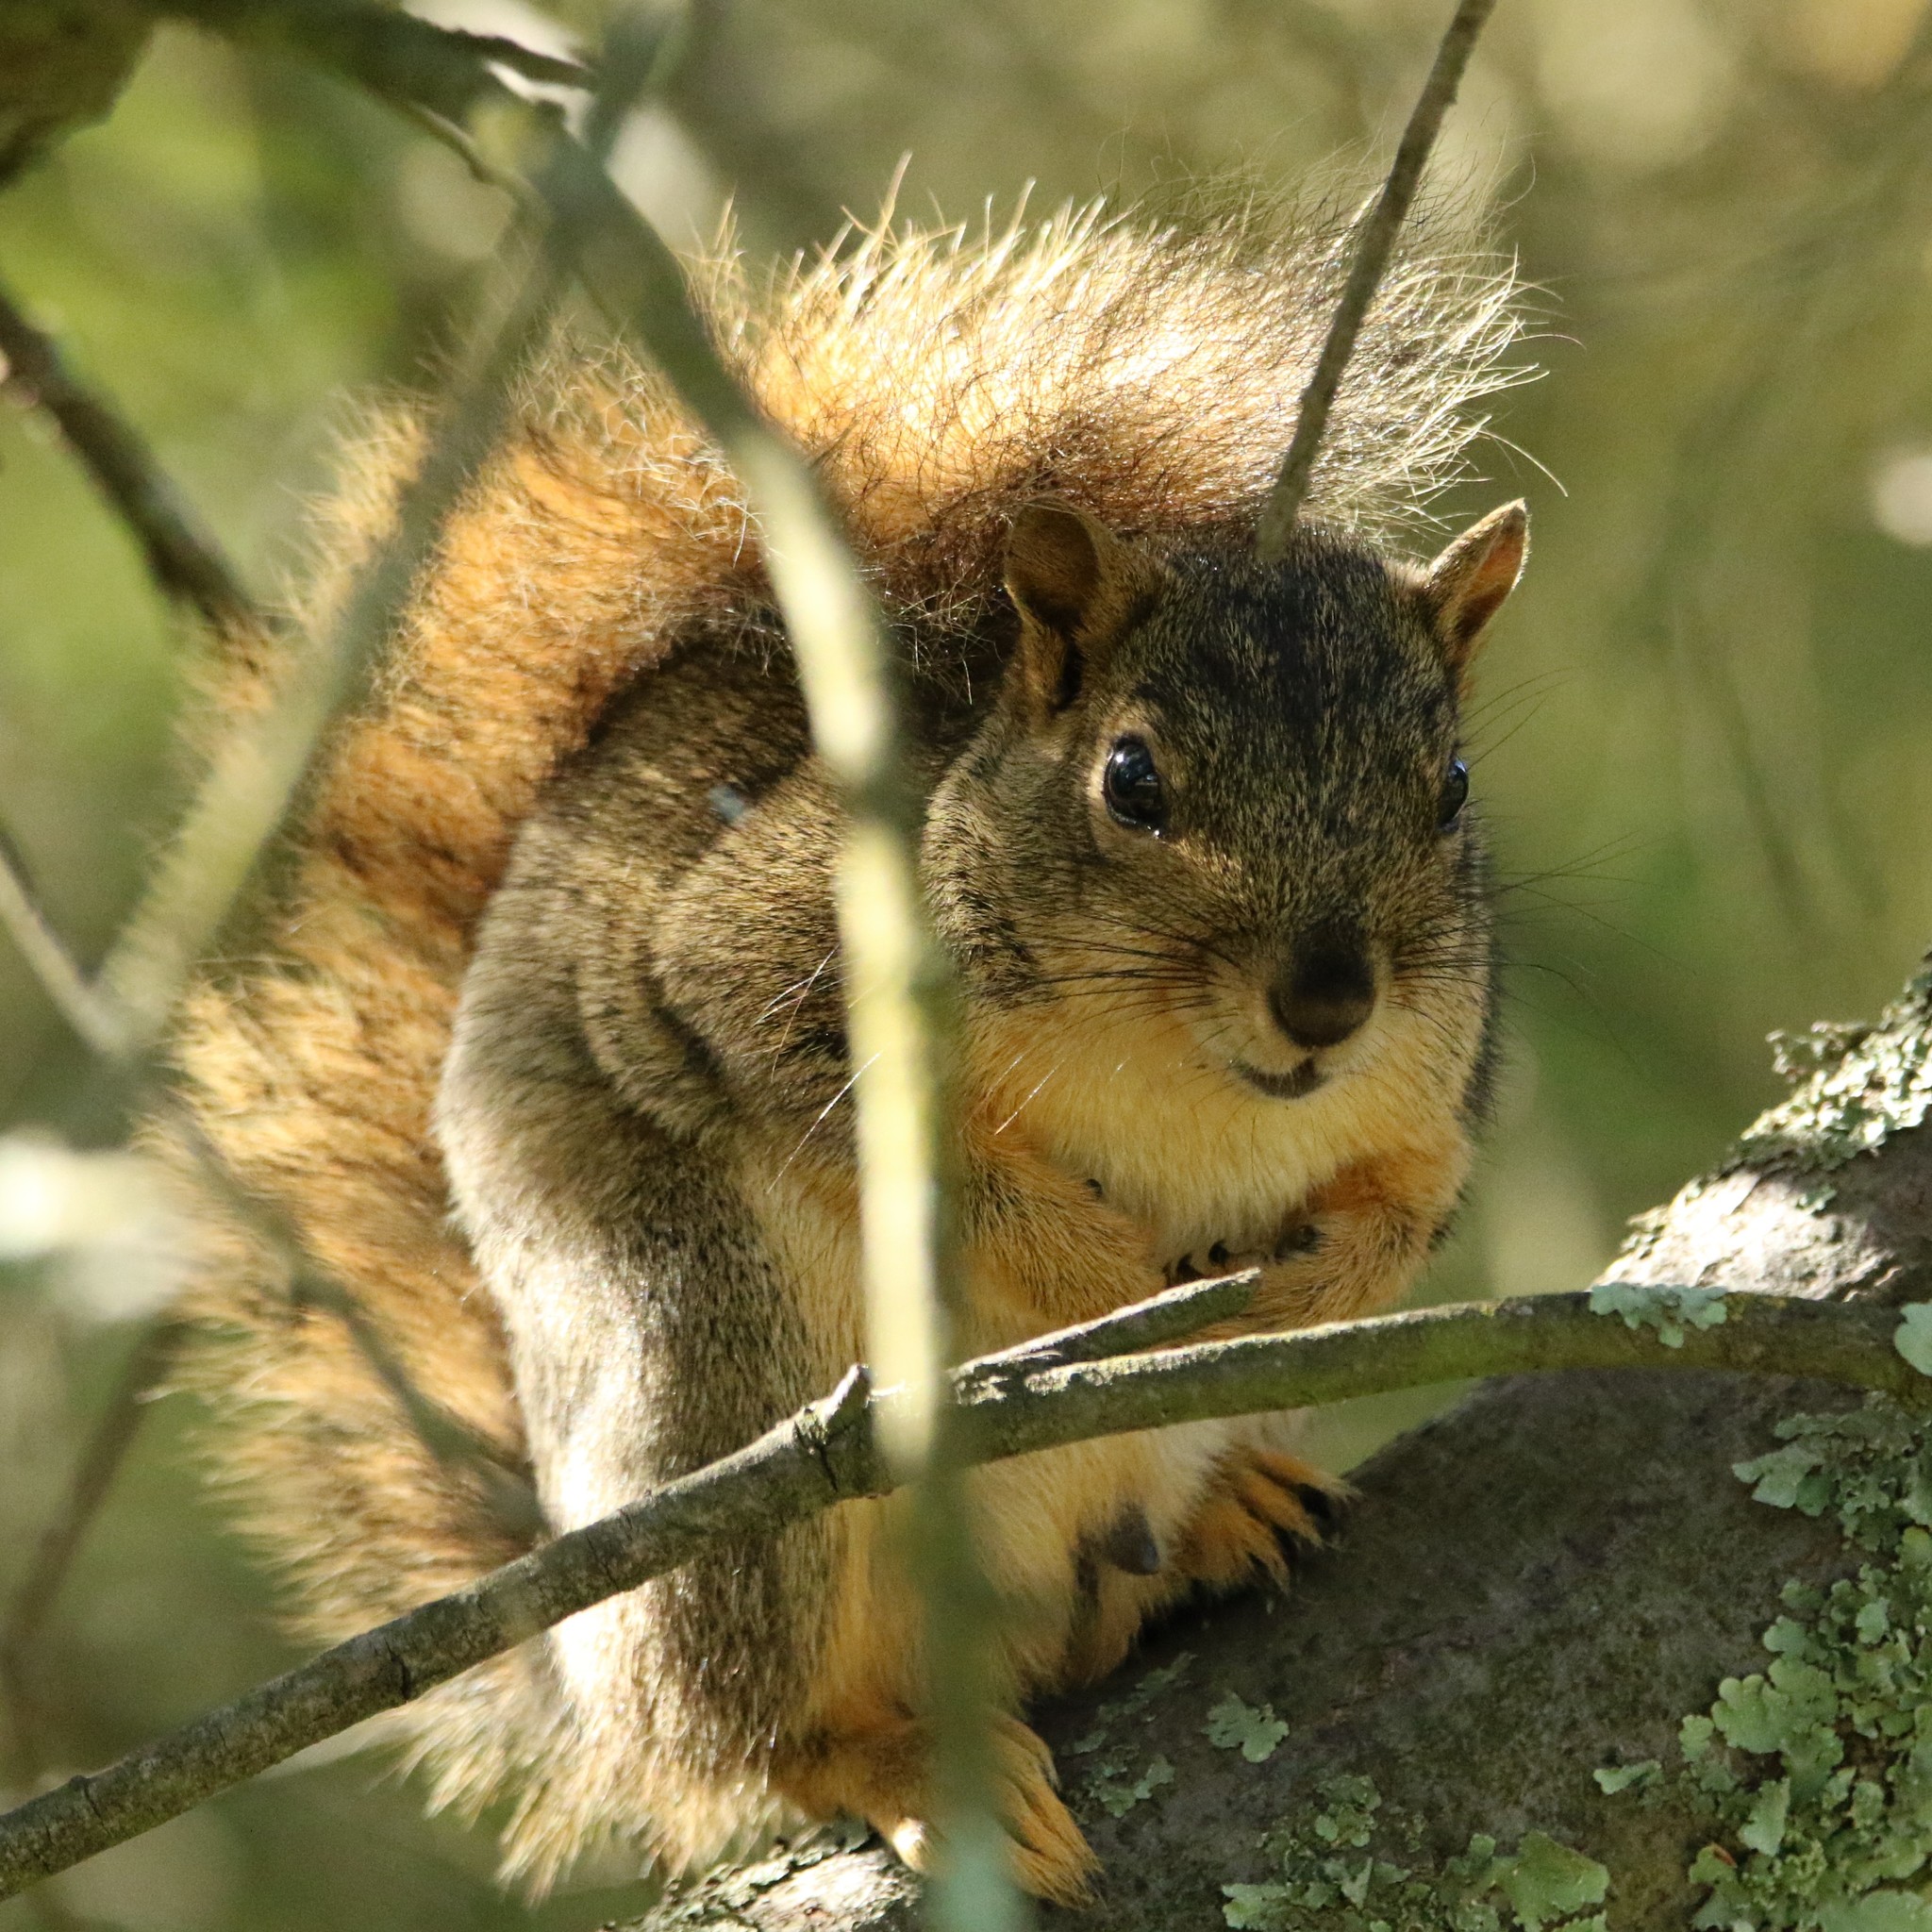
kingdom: Animalia
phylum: Chordata
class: Mammalia
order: Rodentia
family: Sciuridae
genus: Sciurus
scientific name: Sciurus niger
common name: Fox squirrel
